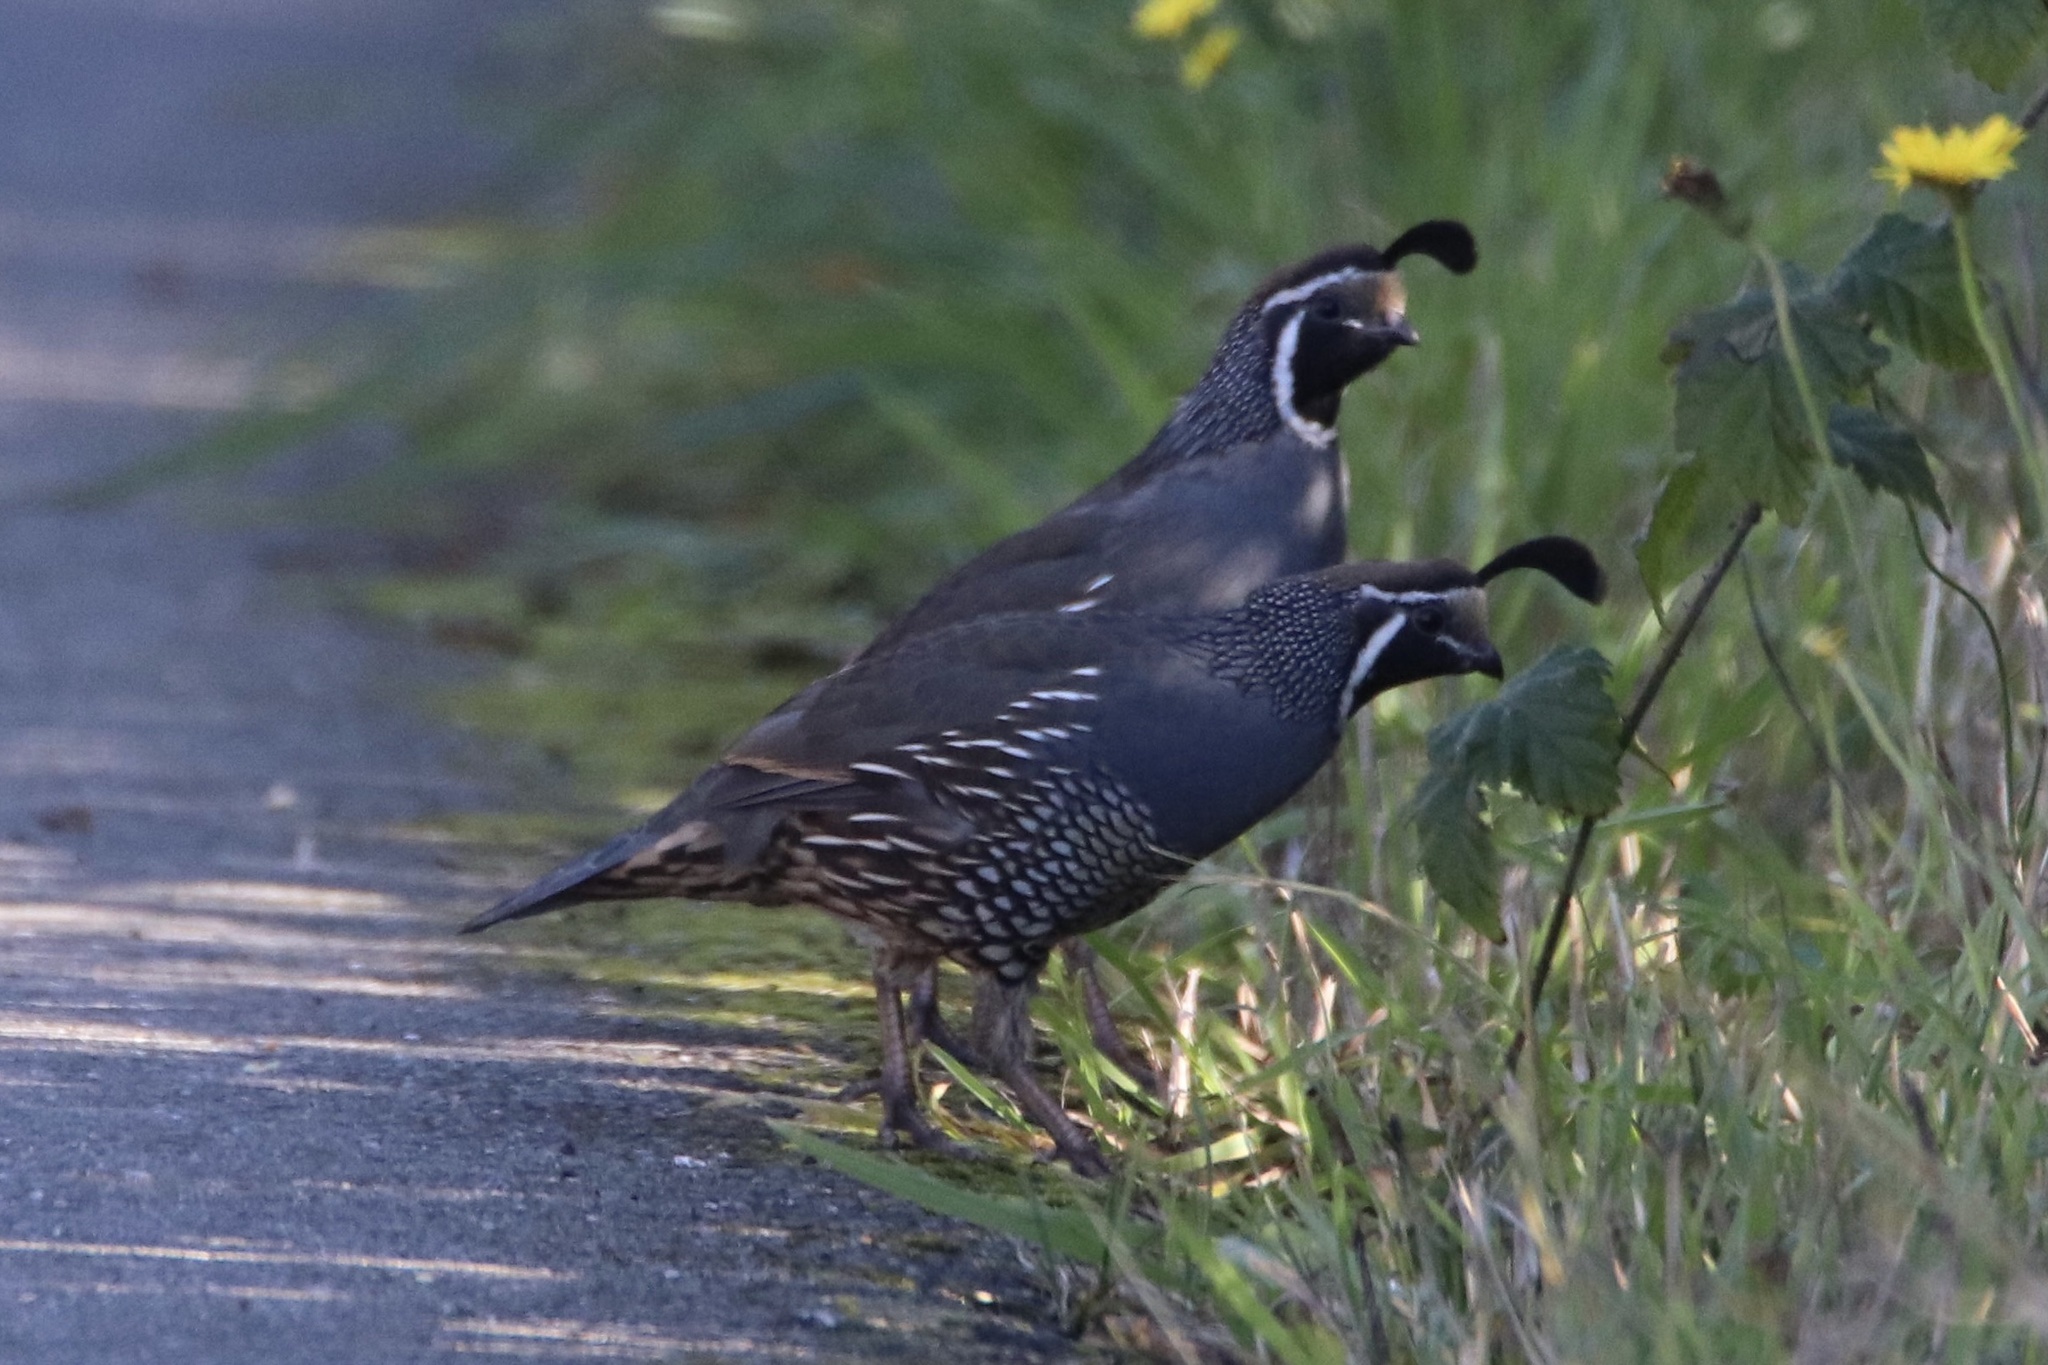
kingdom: Animalia
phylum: Chordata
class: Aves
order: Galliformes
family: Odontophoridae
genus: Callipepla
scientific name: Callipepla californica
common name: California quail
